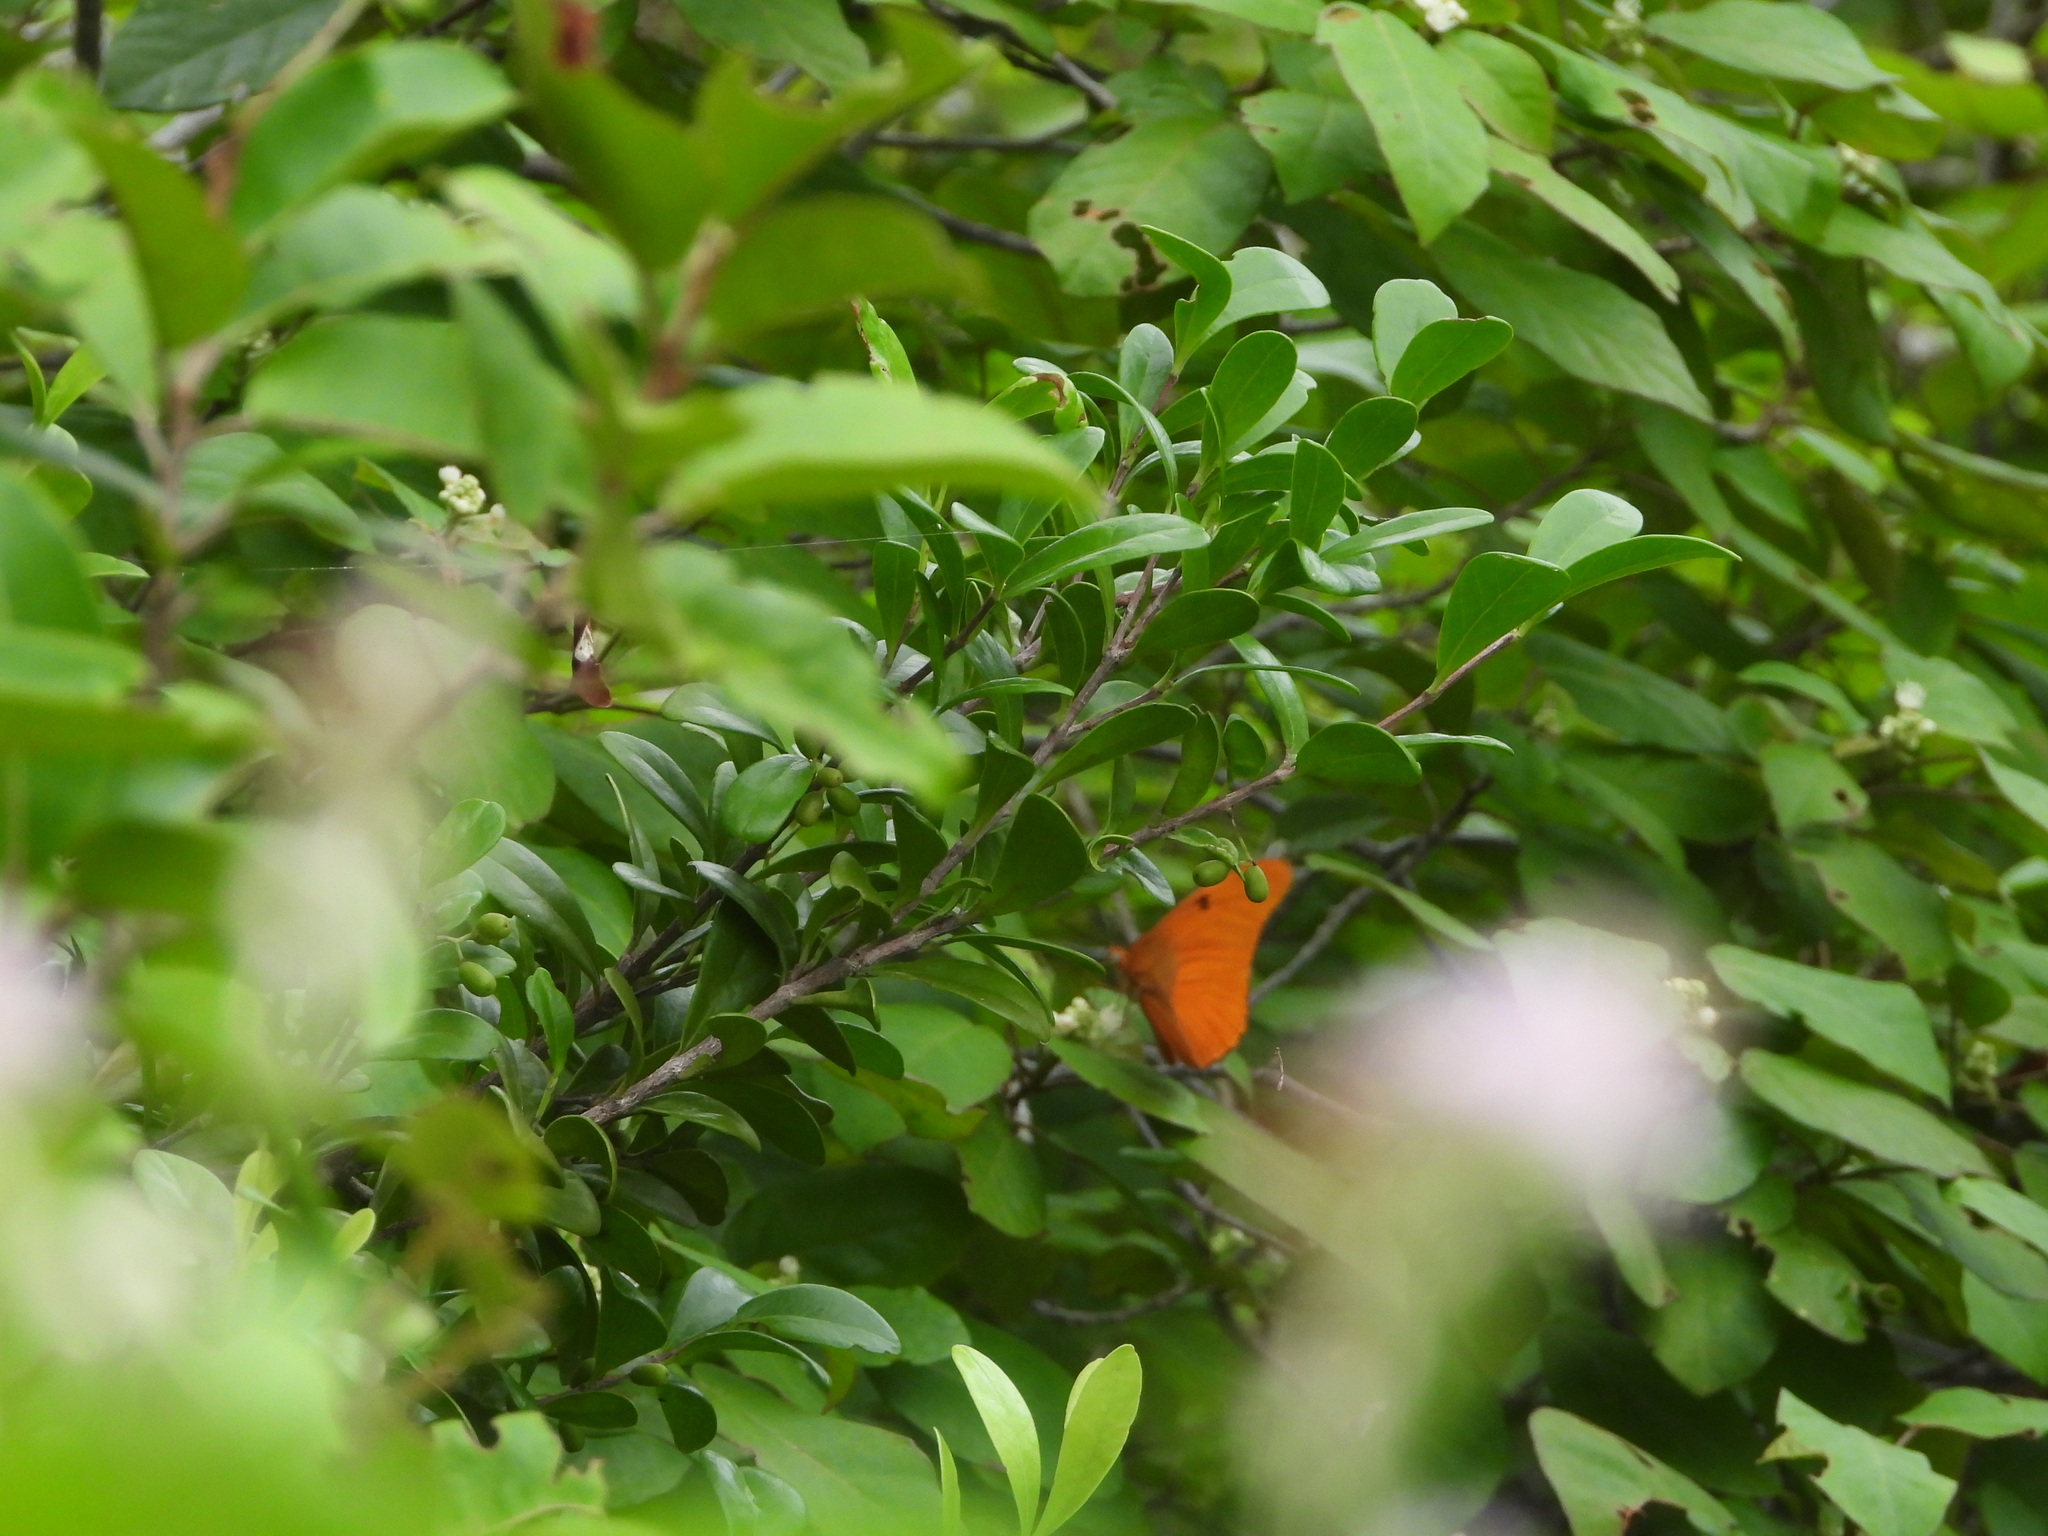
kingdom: Animalia
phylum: Arthropoda
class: Insecta
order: Lepidoptera
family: Nymphalidae
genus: Dryas
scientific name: Dryas iulia
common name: Flambeau
